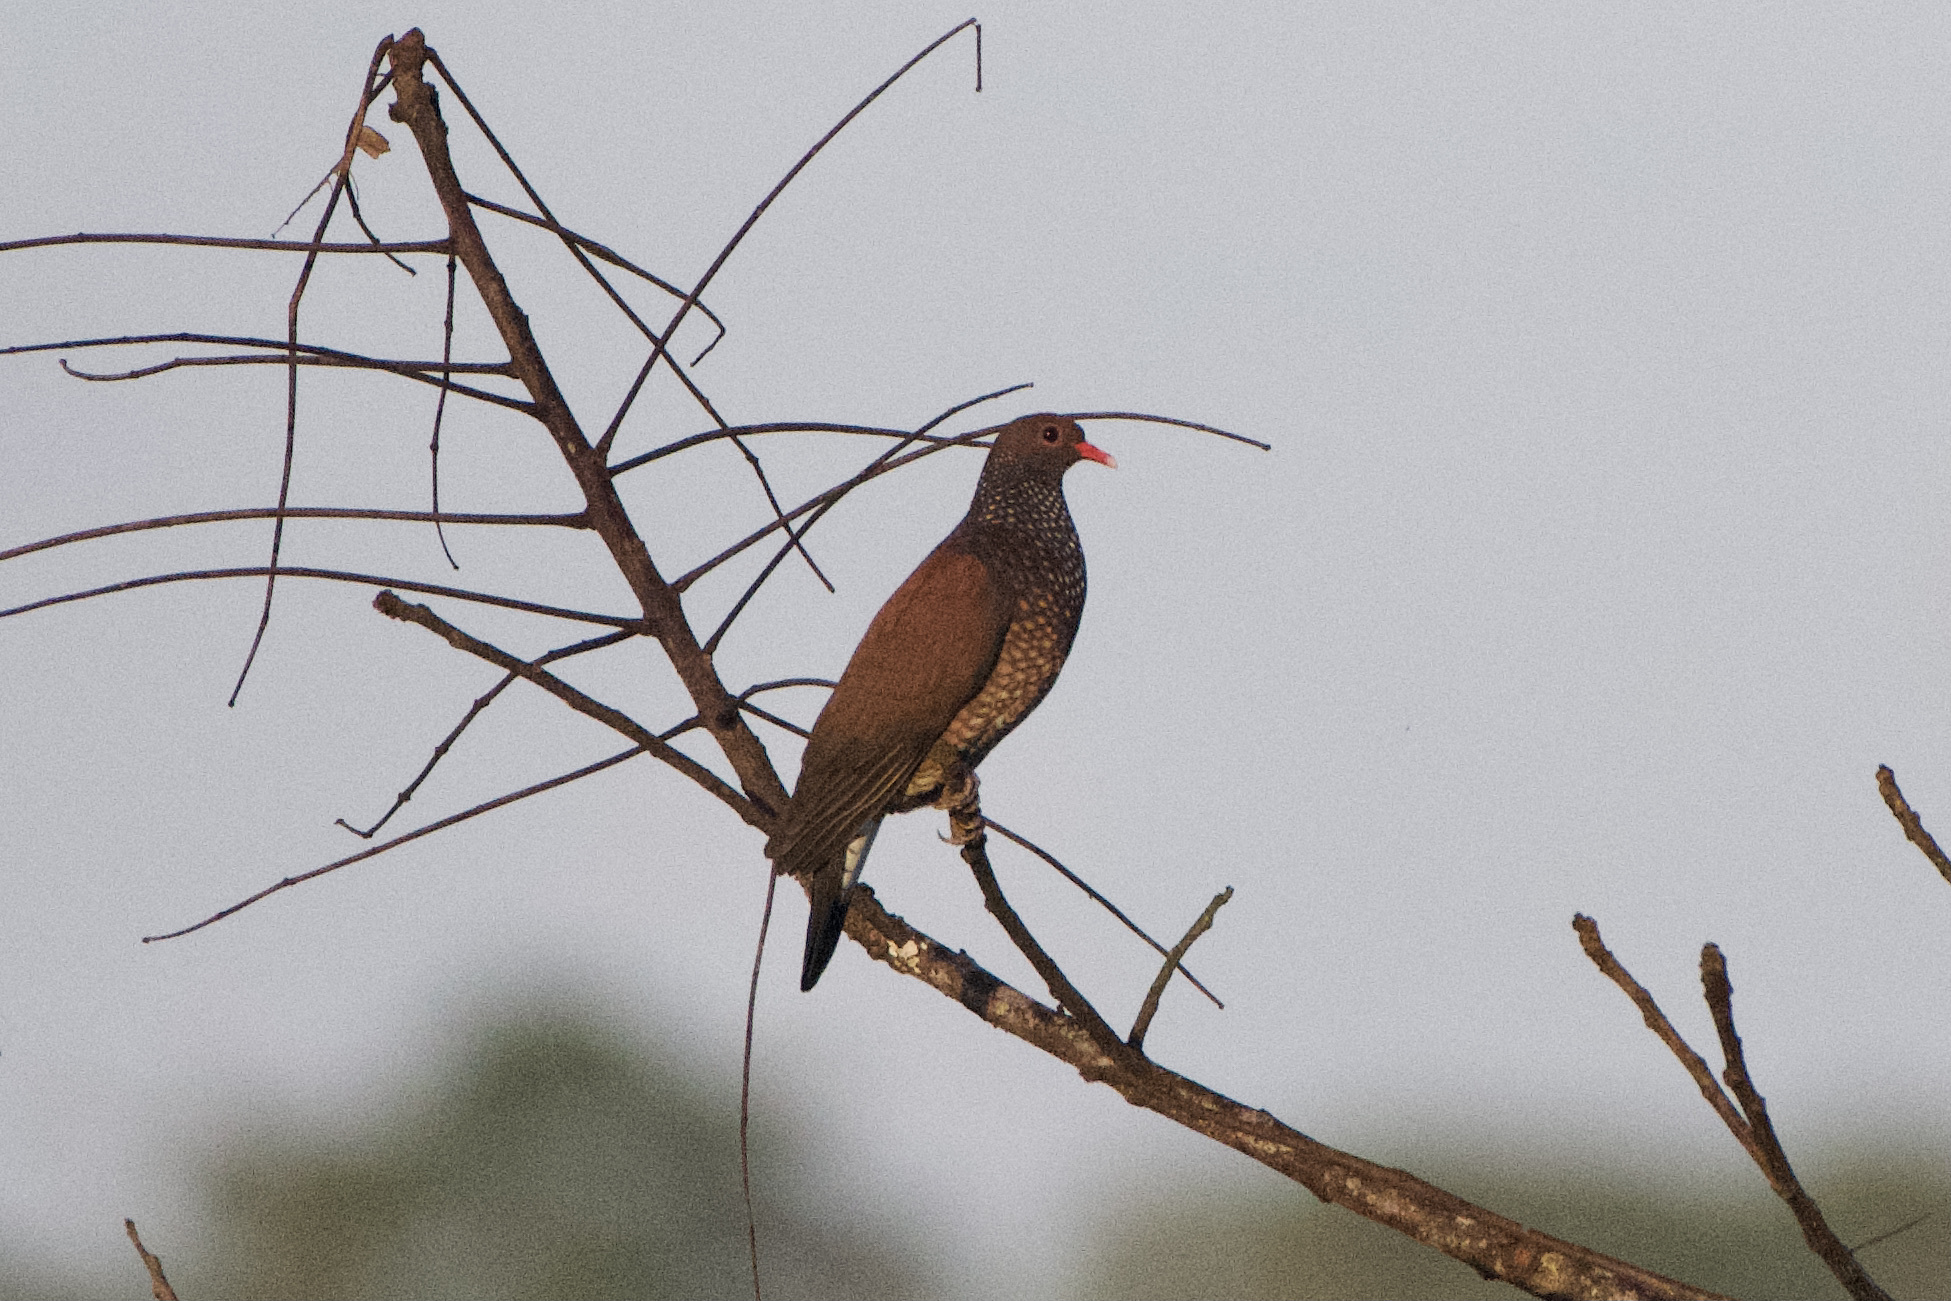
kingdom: Animalia
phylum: Chordata
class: Aves
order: Columbiformes
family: Columbidae
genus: Patagioenas
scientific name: Patagioenas speciosa
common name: Scaled pigeon
